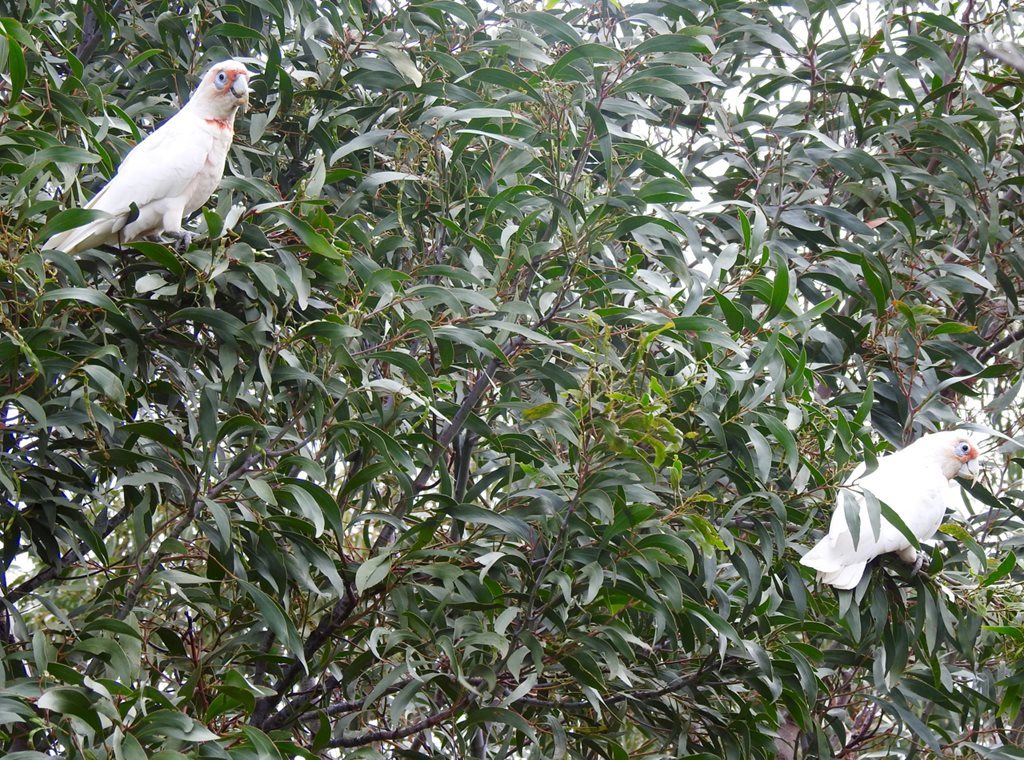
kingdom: Animalia
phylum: Chordata
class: Aves
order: Psittaciformes
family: Psittacidae
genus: Cacatua
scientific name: Cacatua tenuirostris
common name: Long-billed corella
